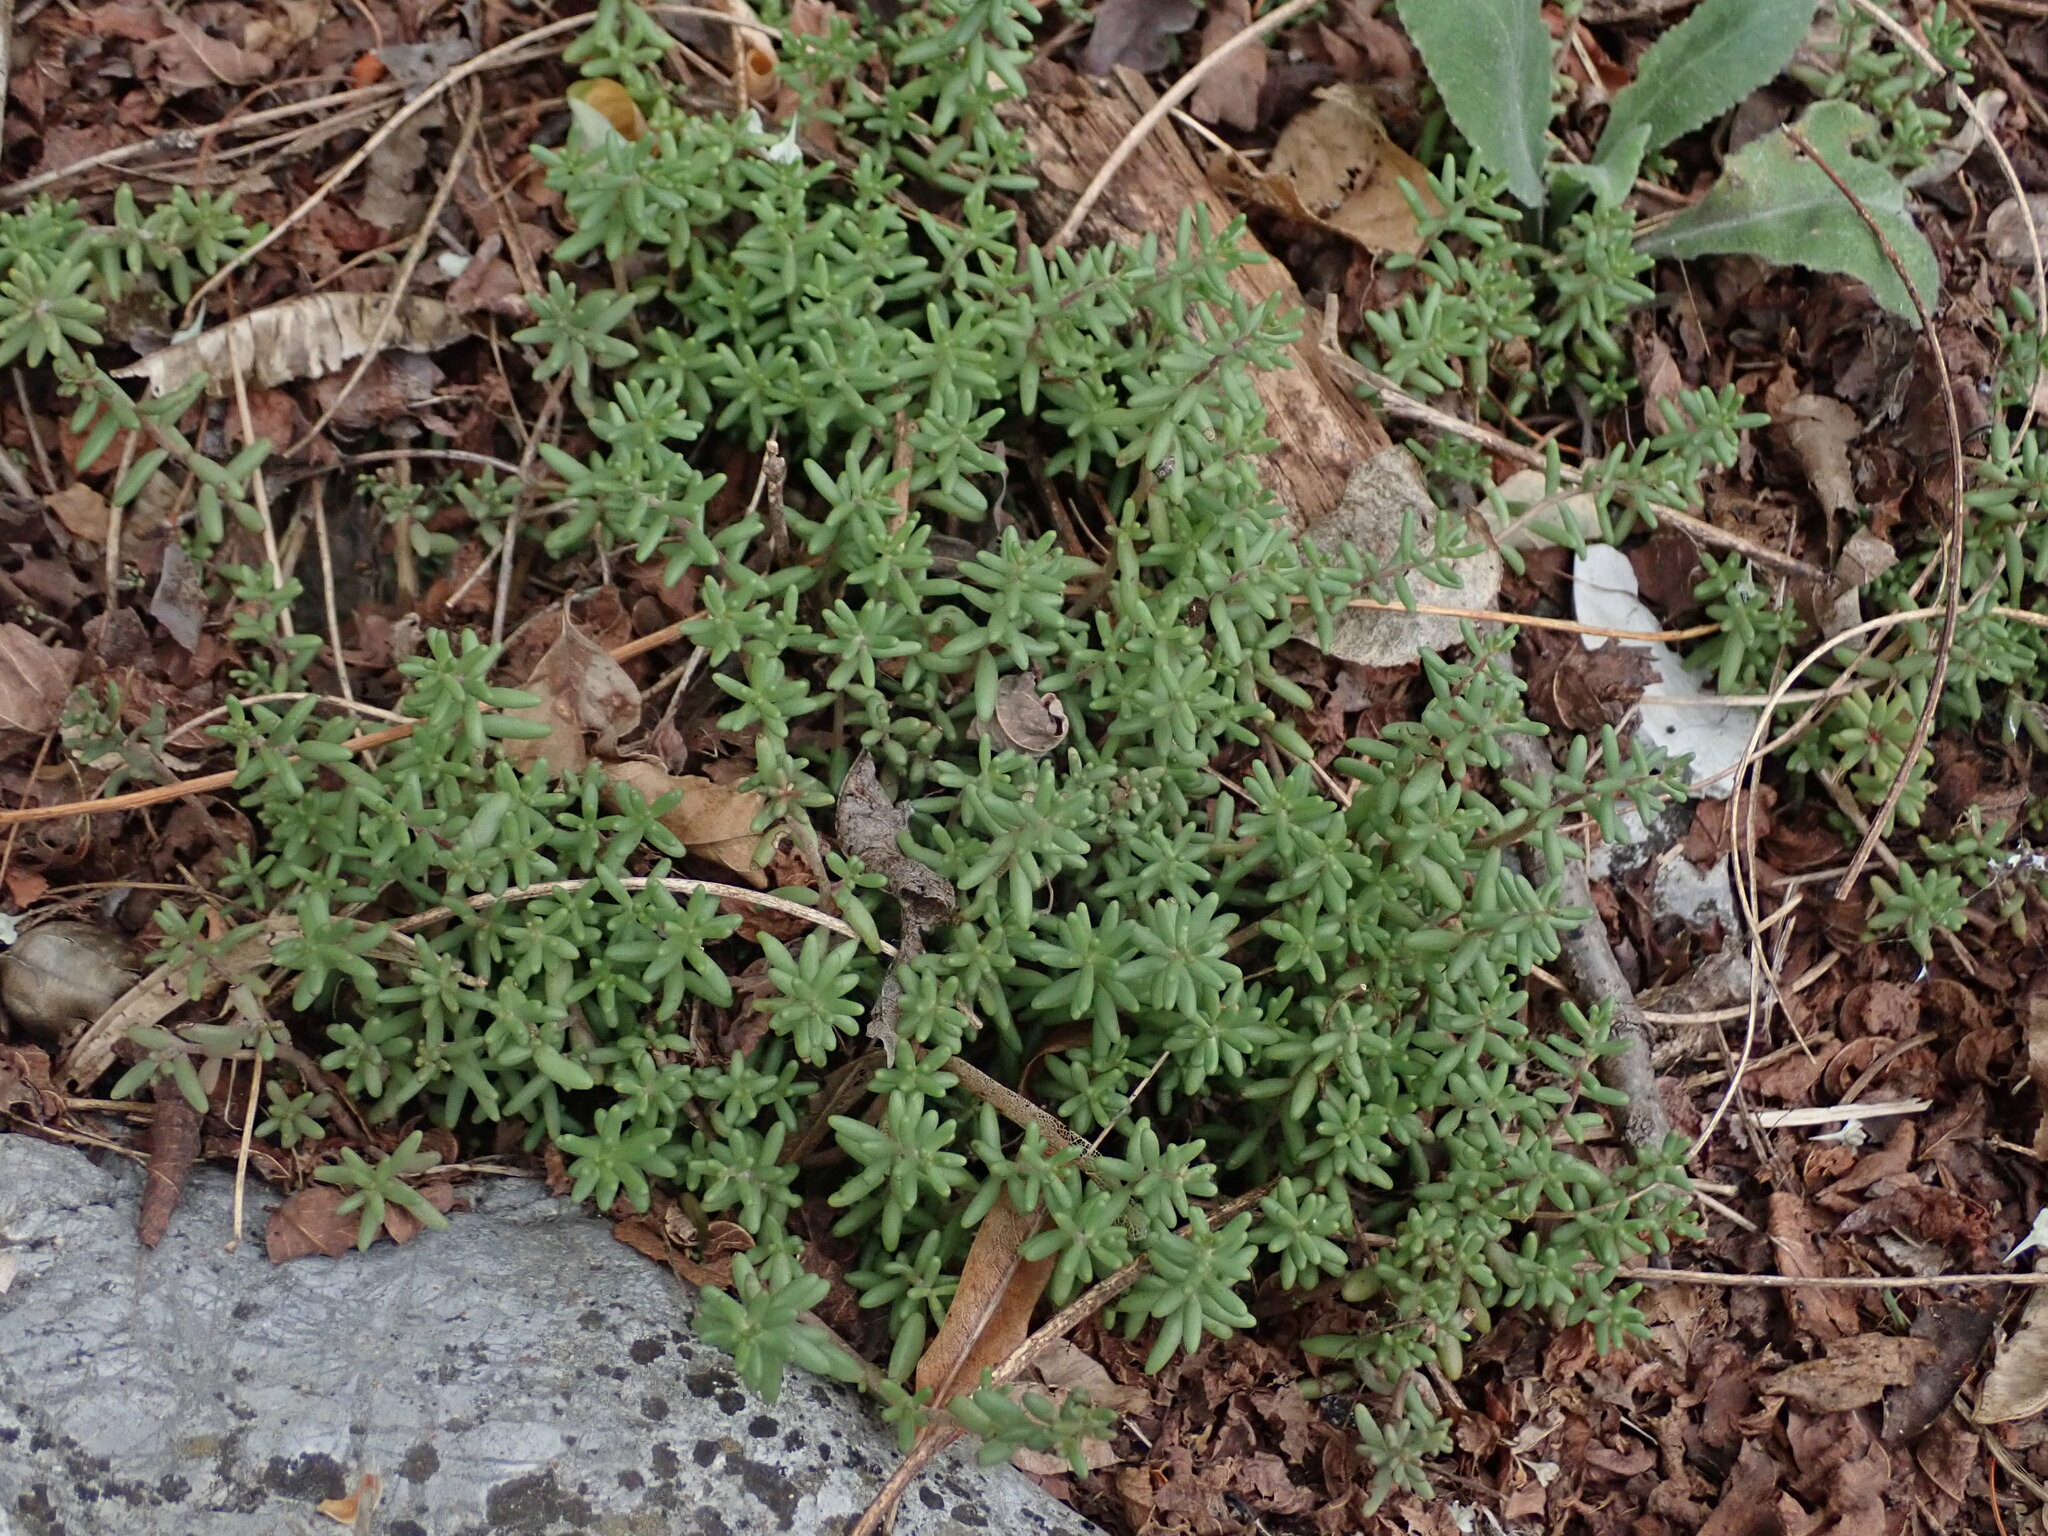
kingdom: Plantae
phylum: Tracheophyta
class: Magnoliopsida
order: Saxifragales
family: Crassulaceae
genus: Sedum
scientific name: Sedum album
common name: White stonecrop
